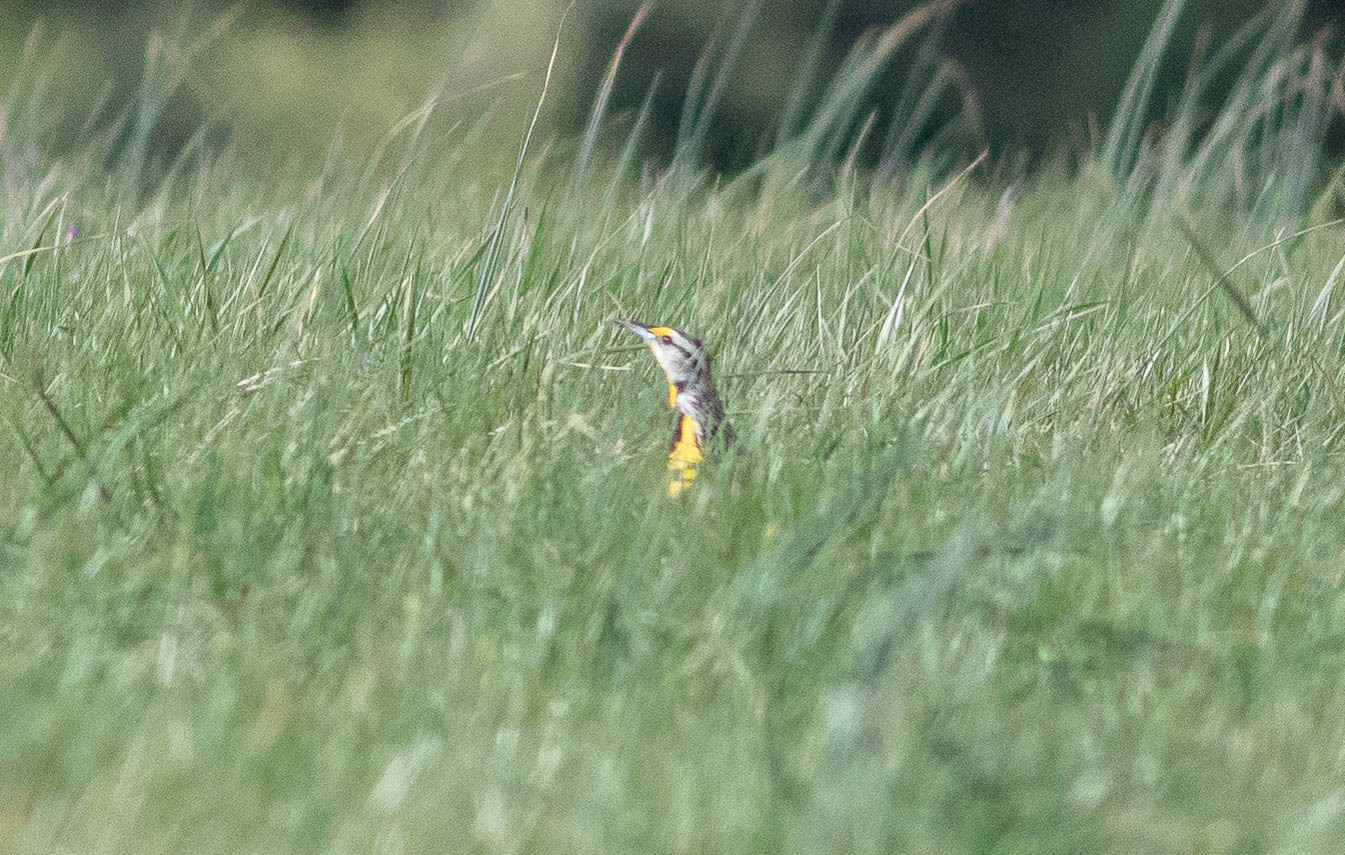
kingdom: Animalia
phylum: Chordata
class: Aves
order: Passeriformes
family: Icteridae
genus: Sturnella
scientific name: Sturnella magna
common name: Eastern meadowlark
